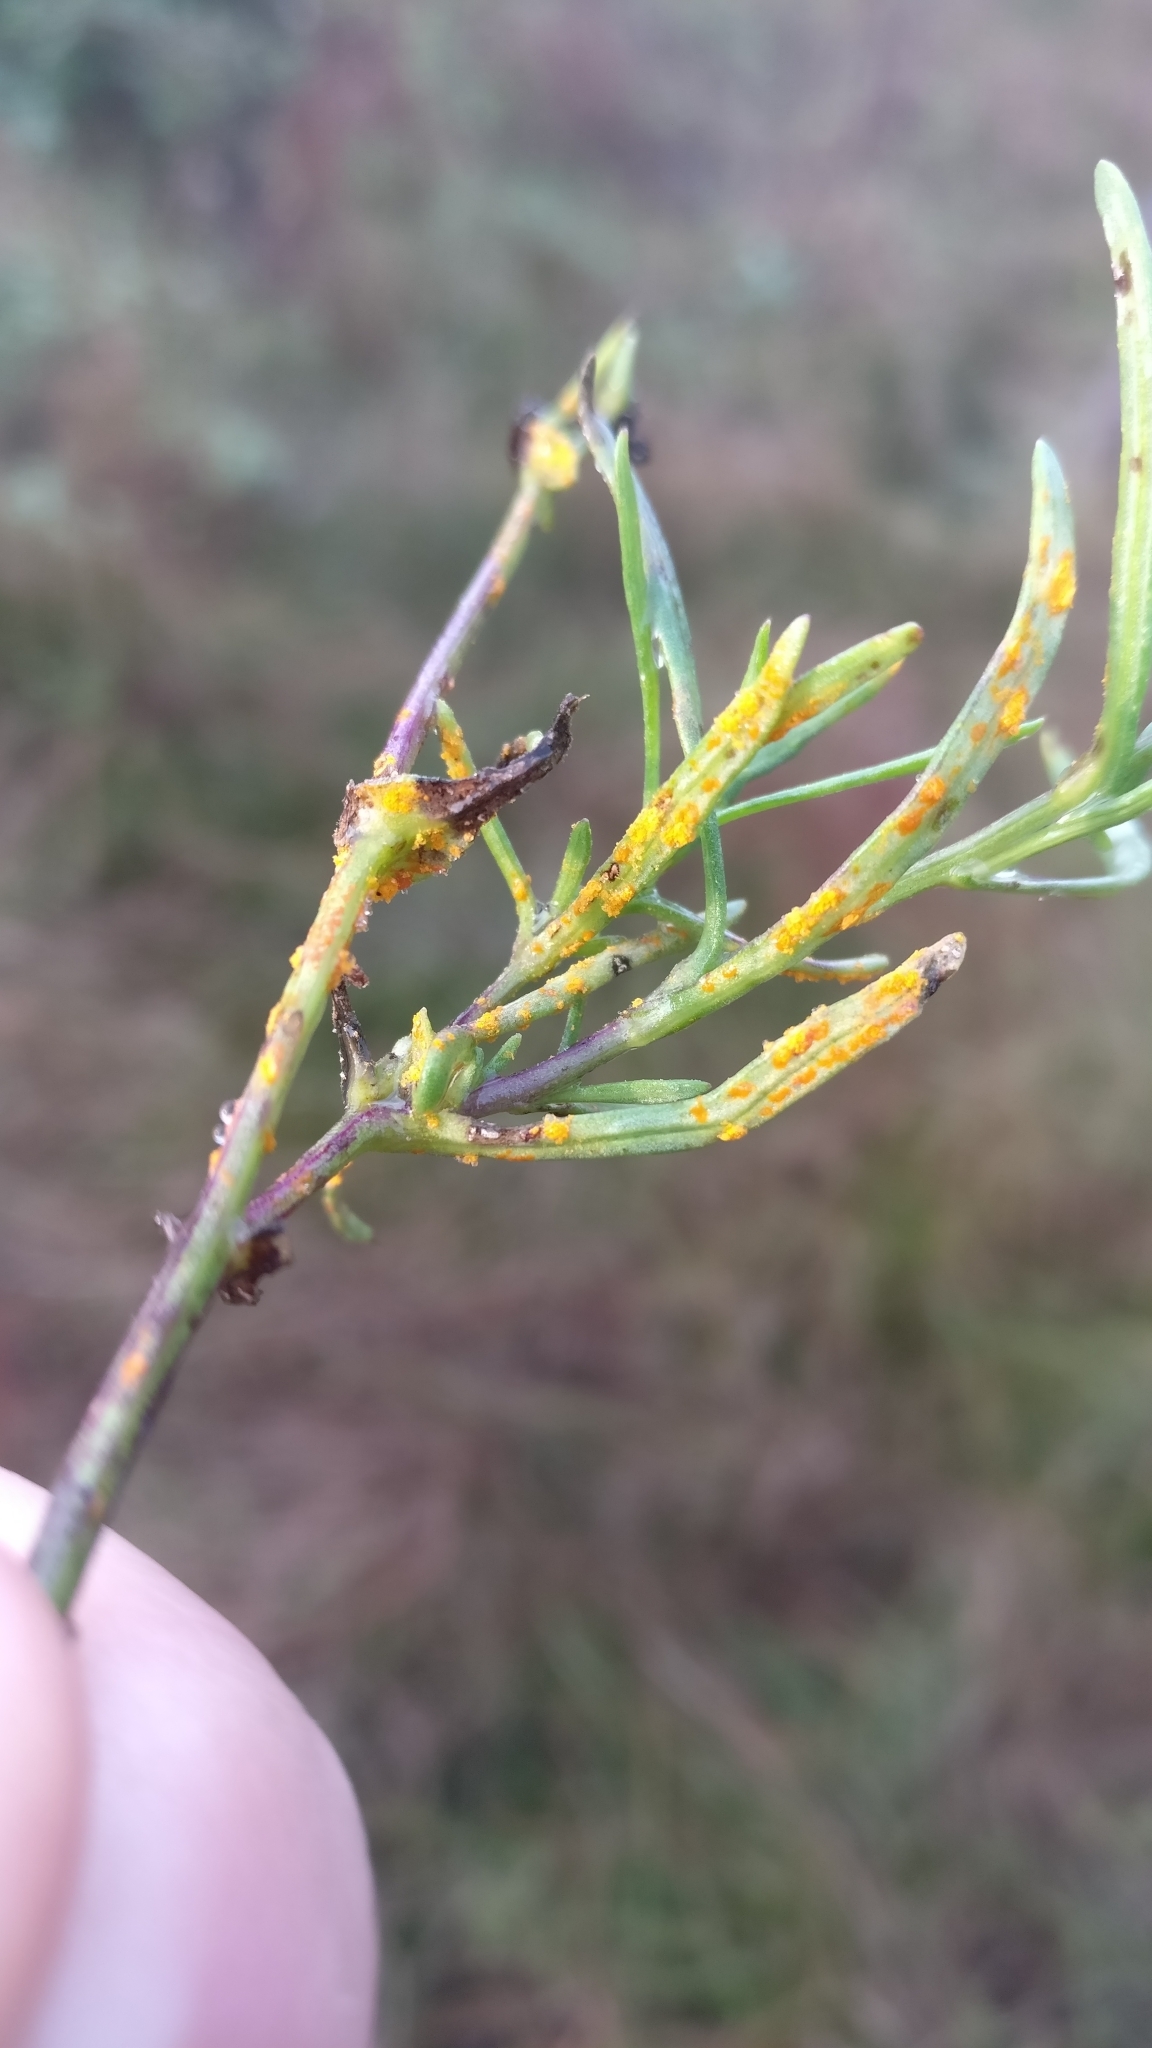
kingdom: Fungi
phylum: Basidiomycota
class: Pucciniomycetes
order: Pucciniales
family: Pucciniaceae
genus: Puccinia
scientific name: Puccinia lagenophorae
